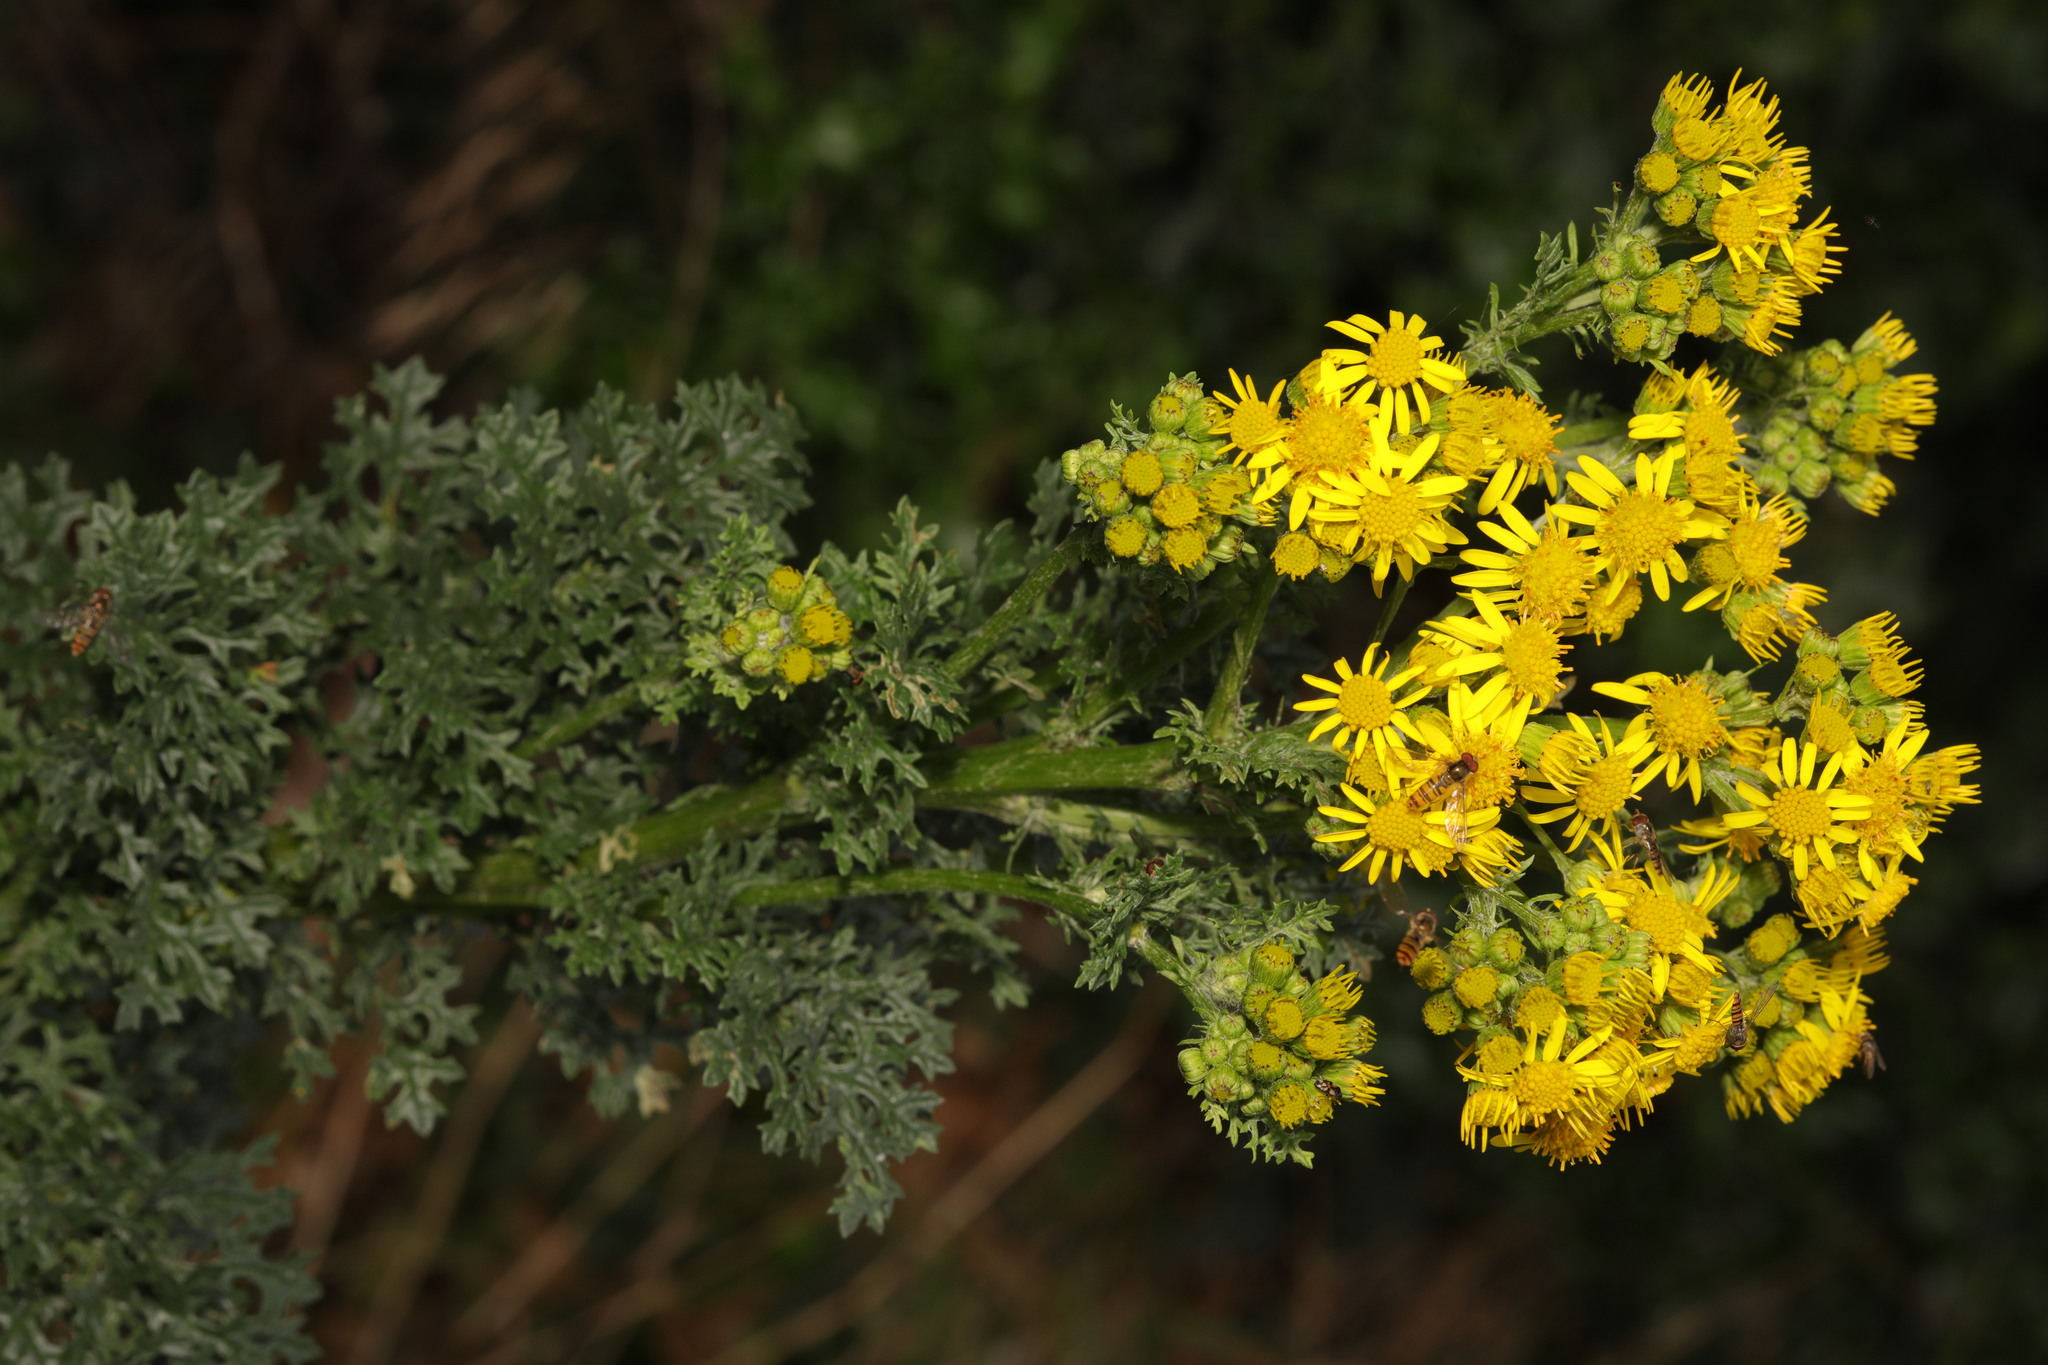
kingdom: Plantae
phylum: Tracheophyta
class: Magnoliopsida
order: Asterales
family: Asteraceae
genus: Jacobaea
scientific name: Jacobaea vulgaris
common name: Stinking willie
